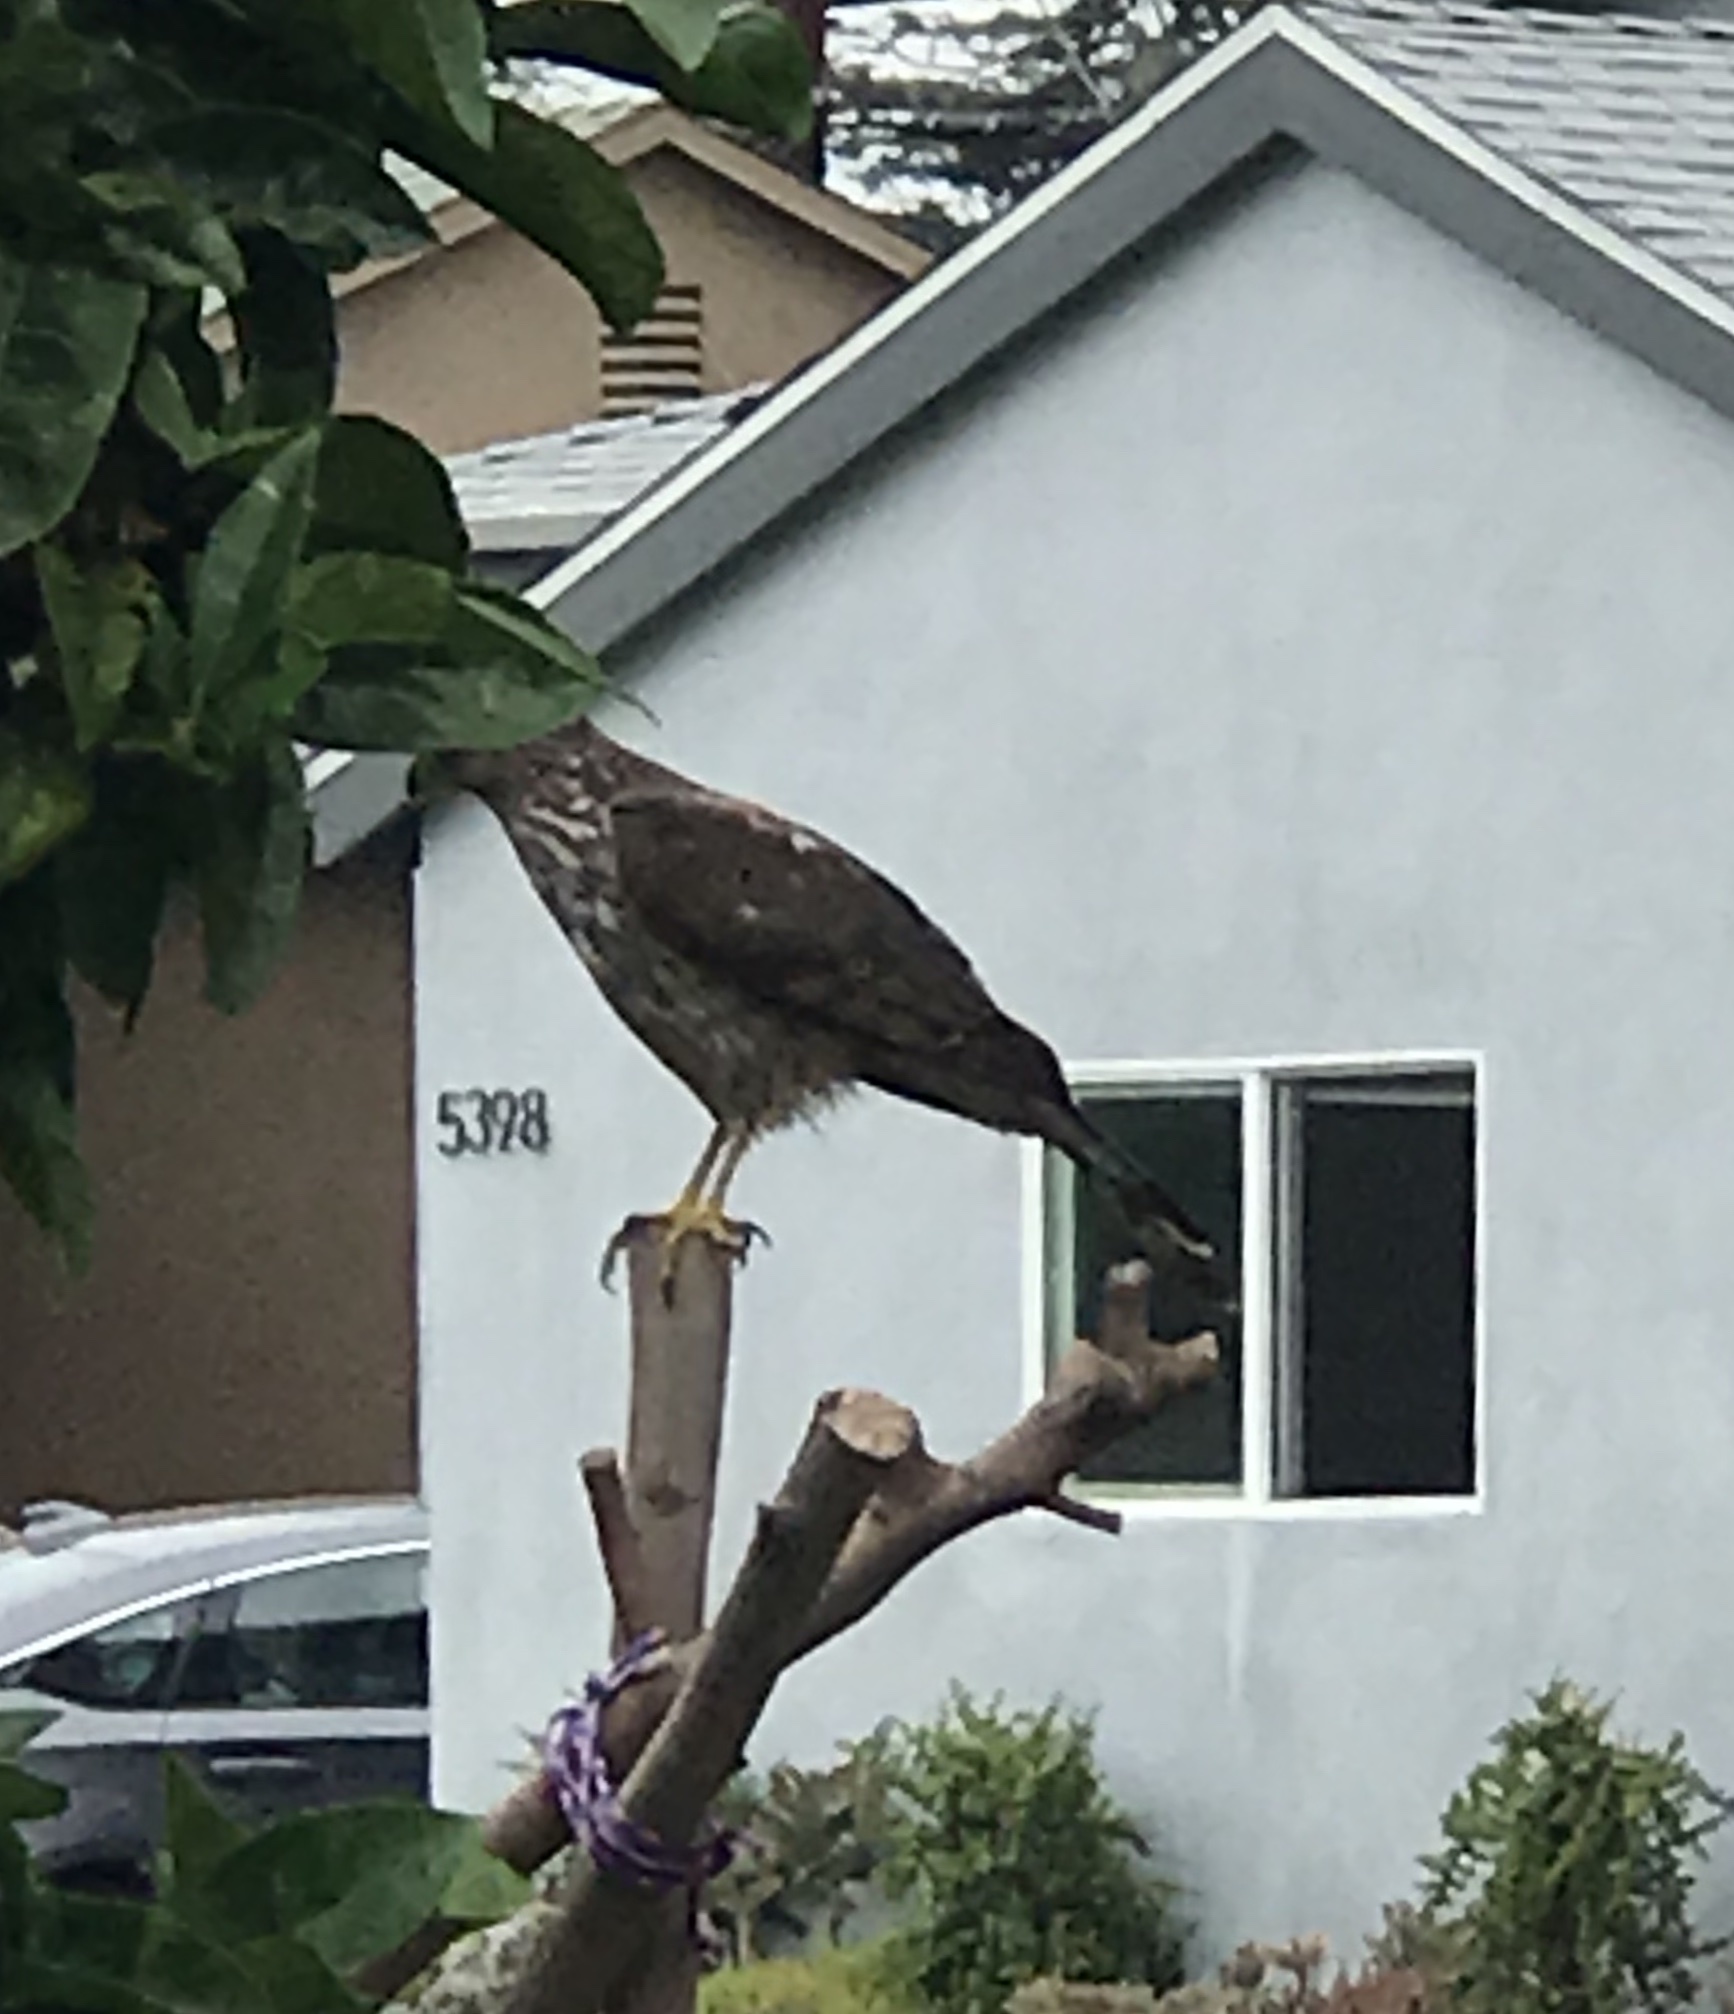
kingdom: Animalia
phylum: Chordata
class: Aves
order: Accipitriformes
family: Accipitridae
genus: Accipiter
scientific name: Accipiter cooperii
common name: Cooper's hawk
